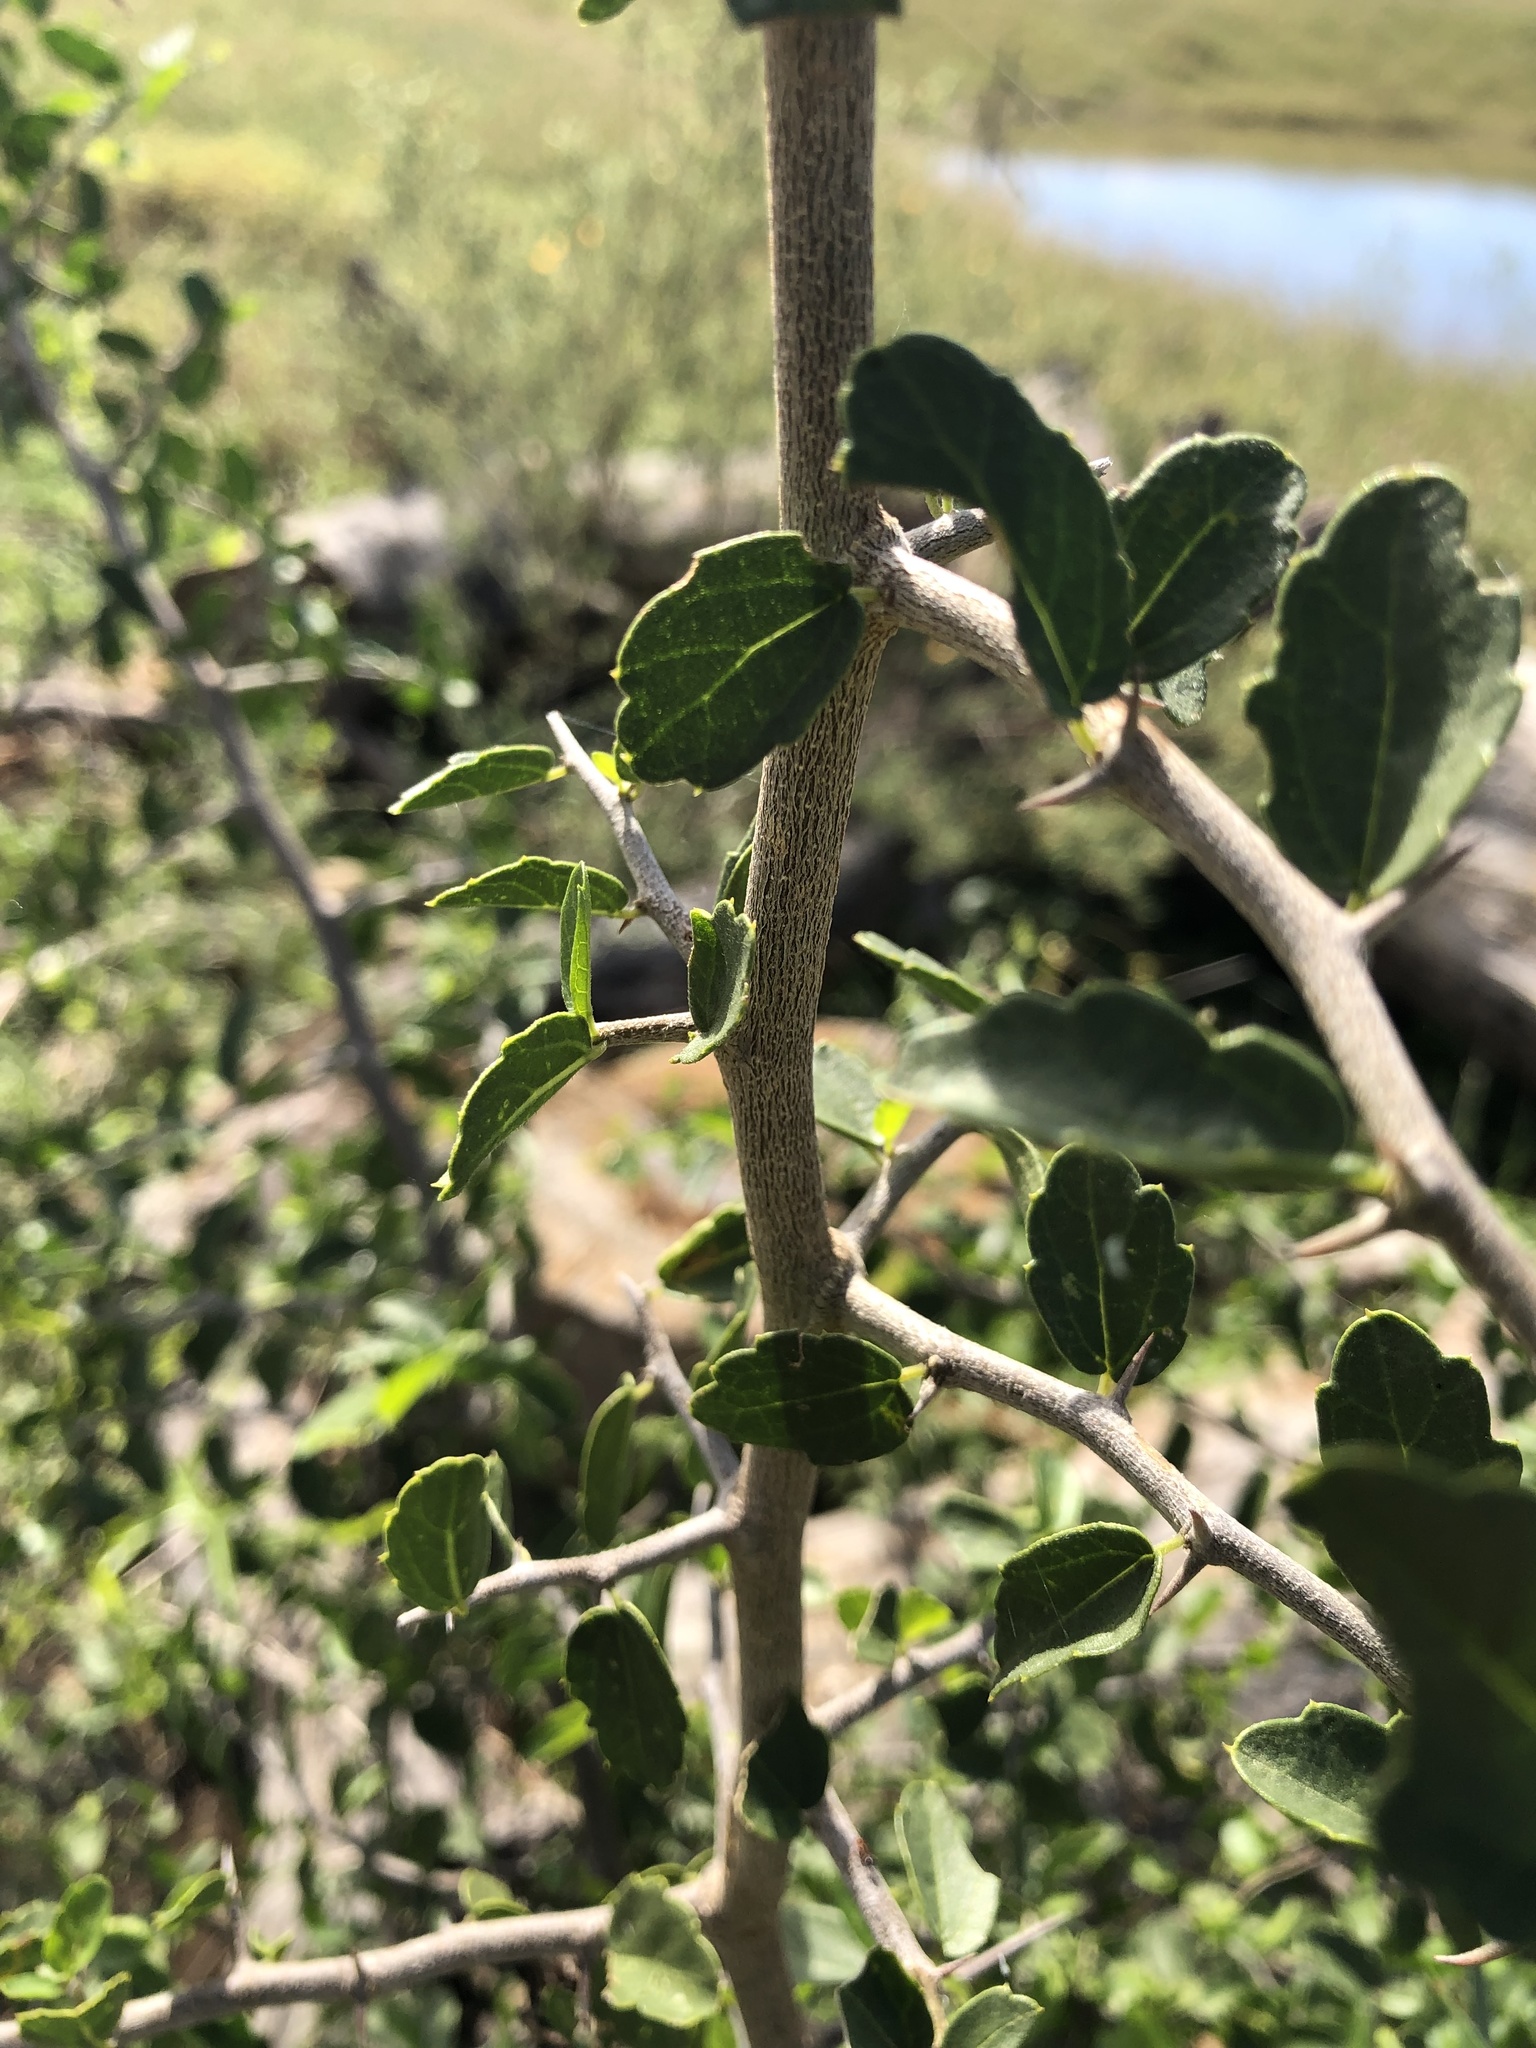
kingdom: Plantae
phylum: Tracheophyta
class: Magnoliopsida
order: Rosales
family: Cannabaceae
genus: Celtis
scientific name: Celtis pallida
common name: Desert hackberry
